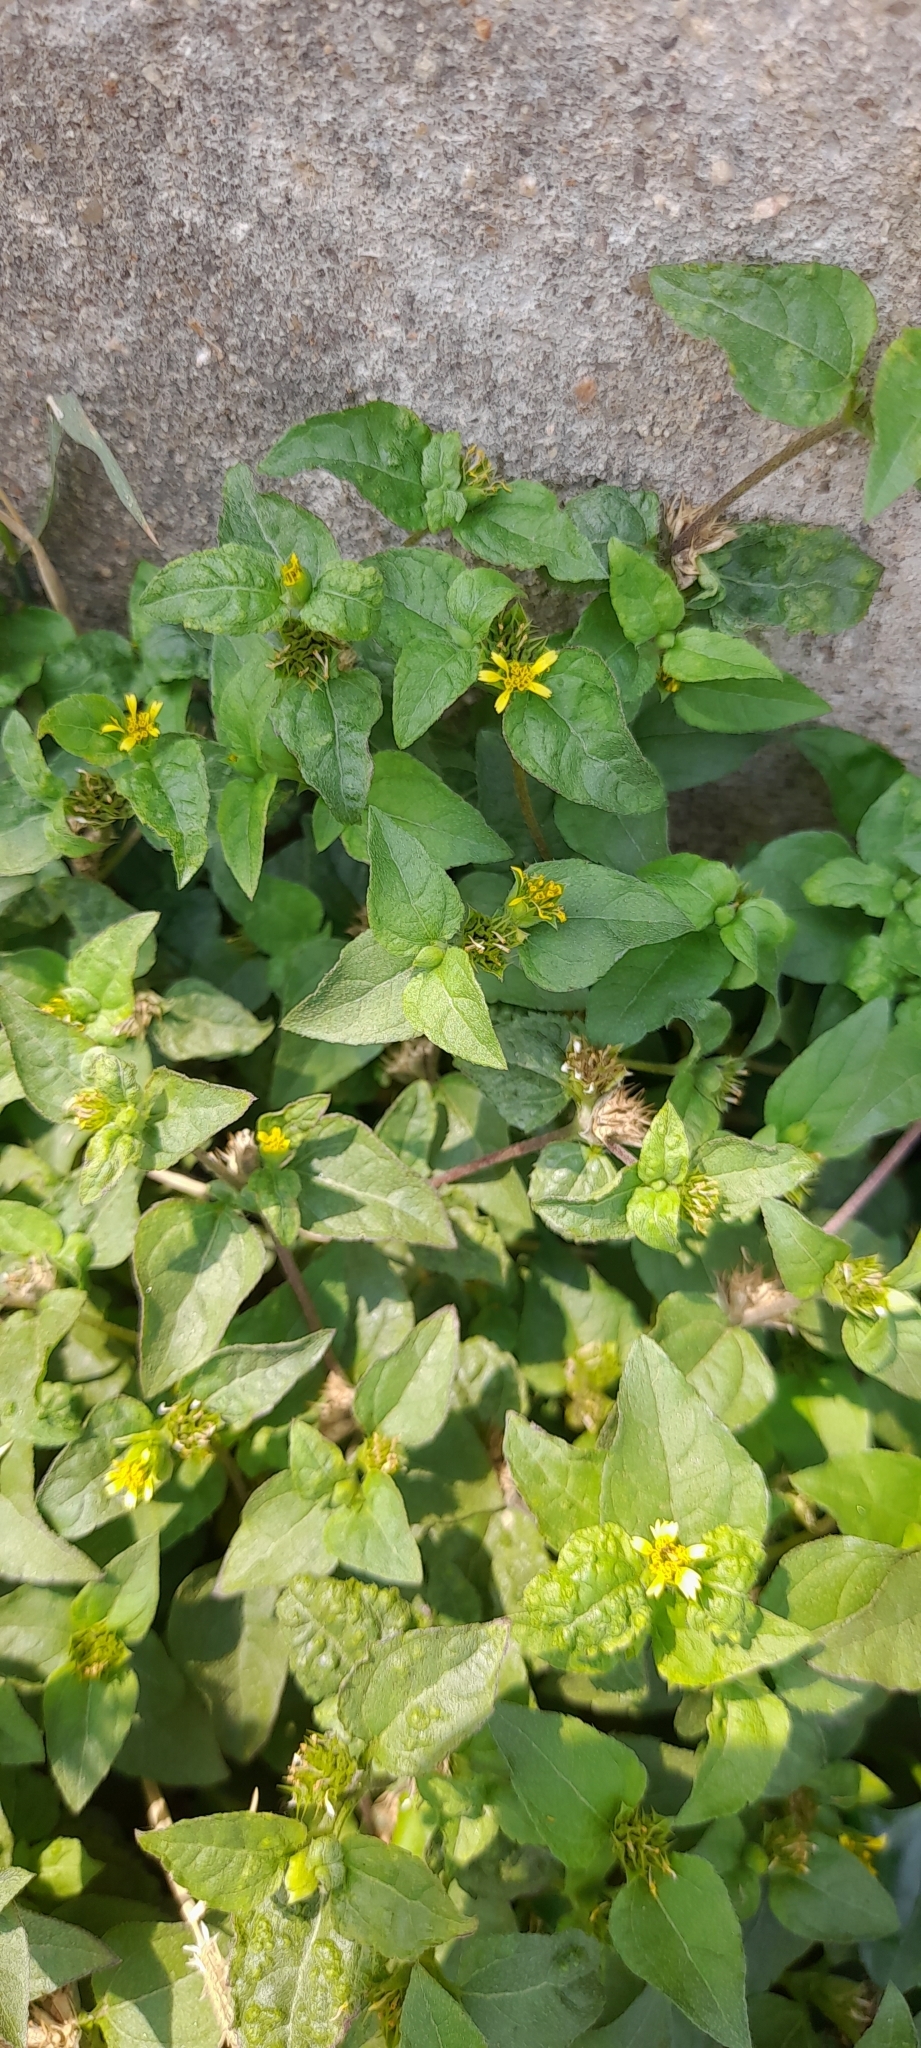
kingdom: Plantae
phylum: Tracheophyta
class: Magnoliopsida
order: Asterales
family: Asteraceae
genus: Synedrella
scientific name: Synedrella nodiflora
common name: Nodeweed
